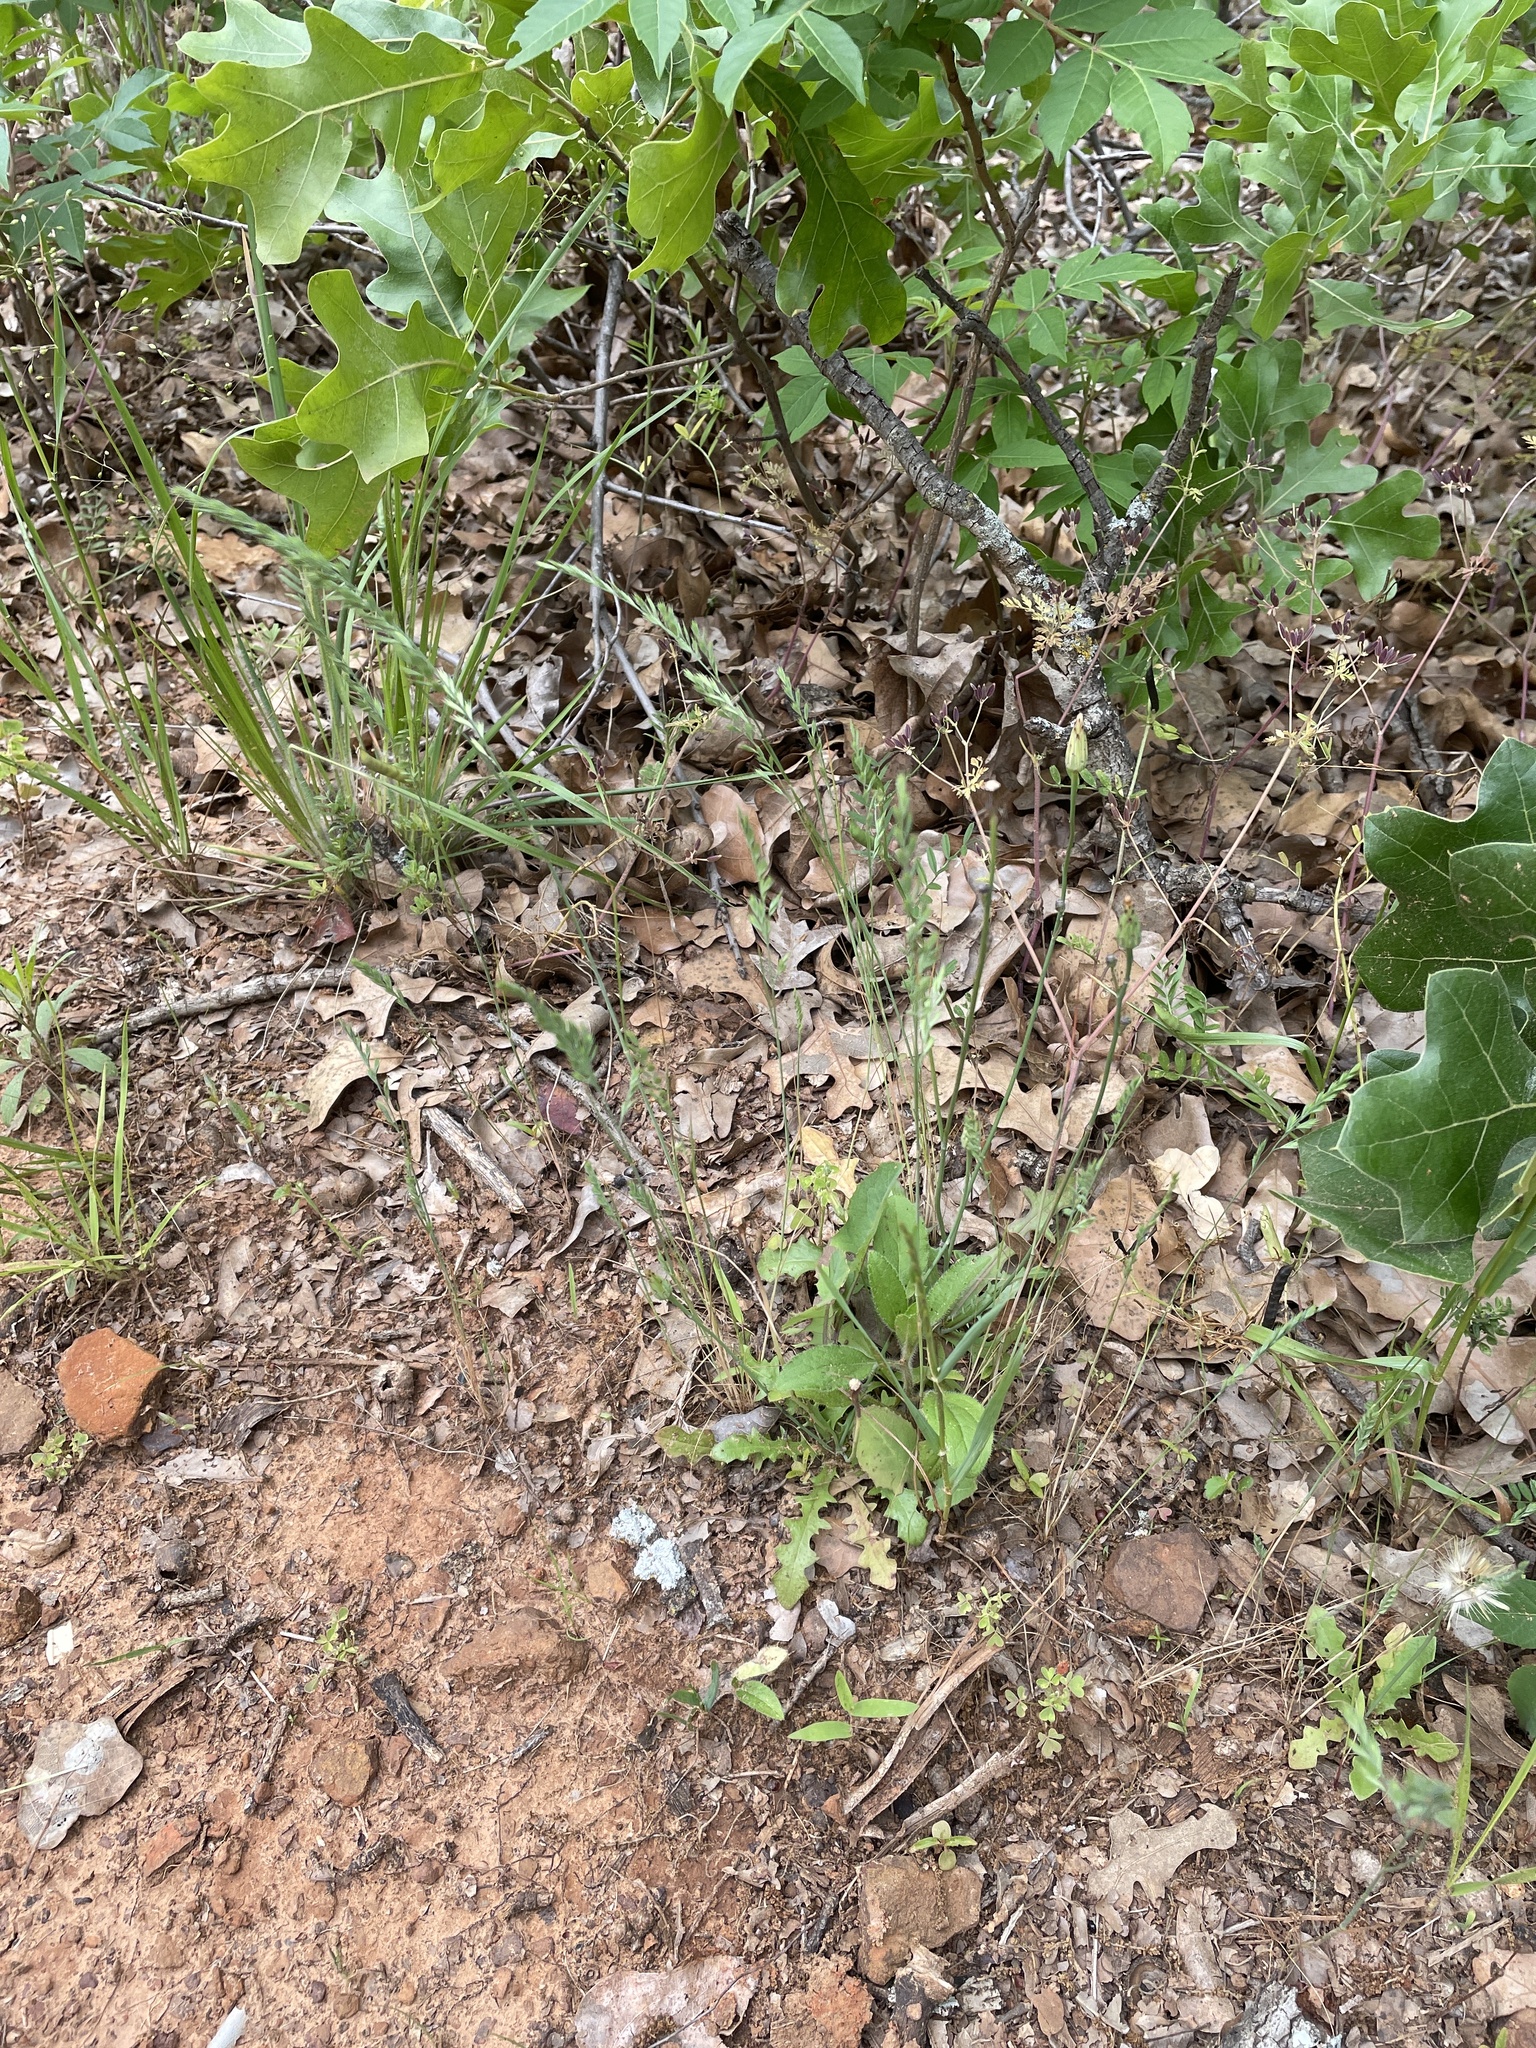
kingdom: Plantae
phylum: Tracheophyta
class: Liliopsida
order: Poales
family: Poaceae
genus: Festuca
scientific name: Festuca octoflora
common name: Sixweeks grass
